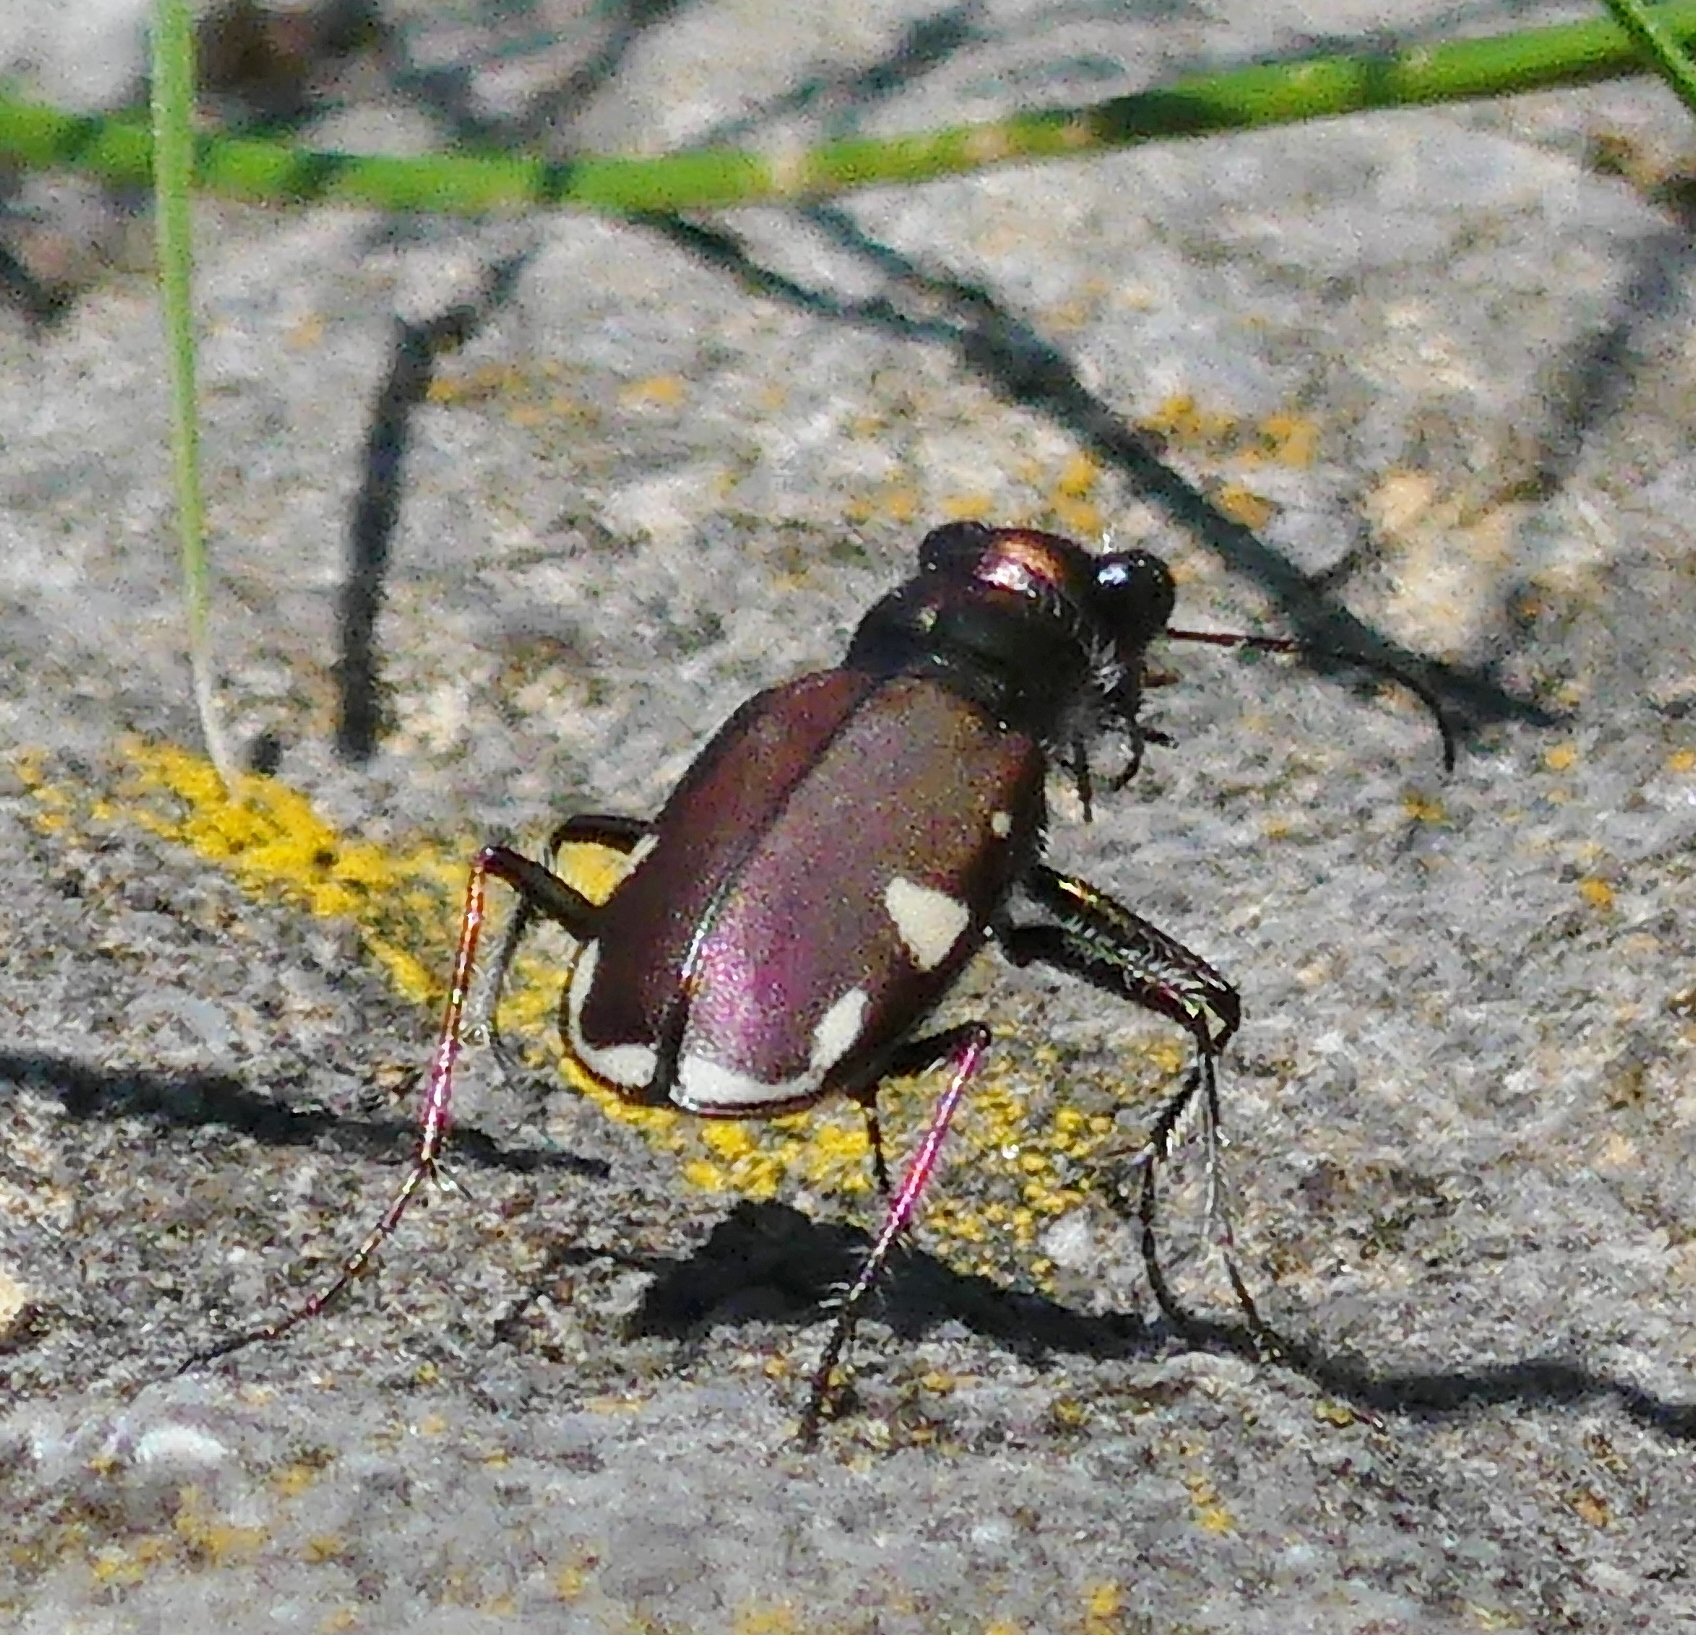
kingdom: Animalia
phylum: Arthropoda
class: Insecta
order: Coleoptera
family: Carabidae
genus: Cicindela
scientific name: Cicindela scutellaris
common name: Festive tiger beetle
